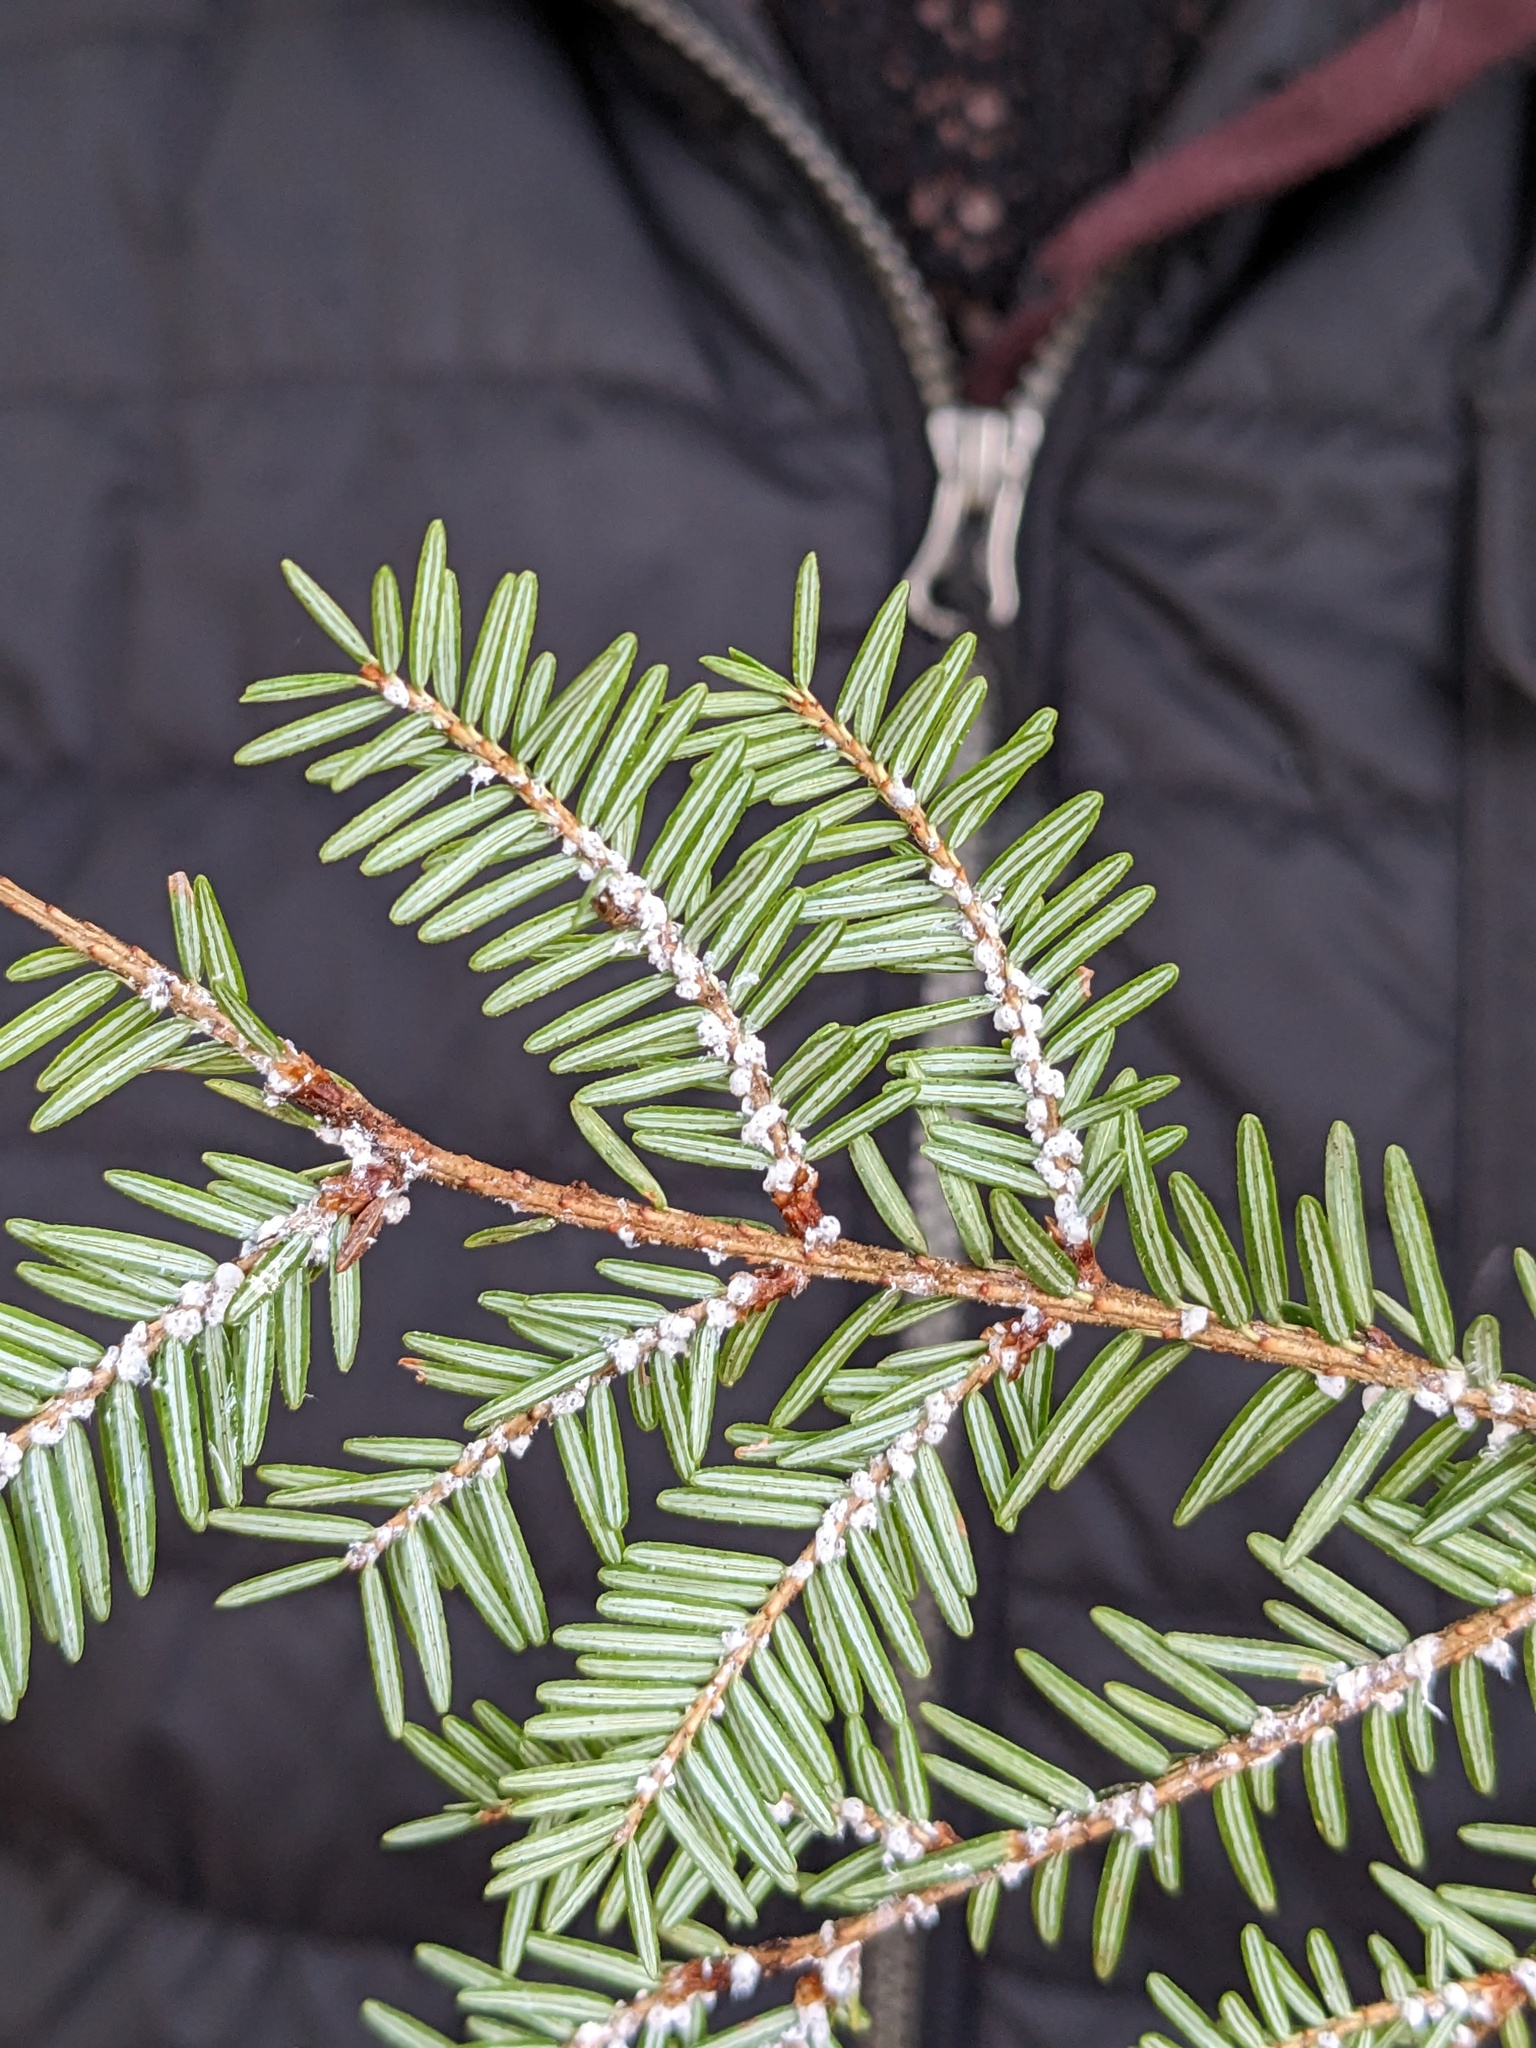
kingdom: Animalia
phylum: Arthropoda
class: Insecta
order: Hemiptera
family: Adelgidae
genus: Adelges
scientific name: Adelges tsugae
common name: Hemlock woolly adelgid
